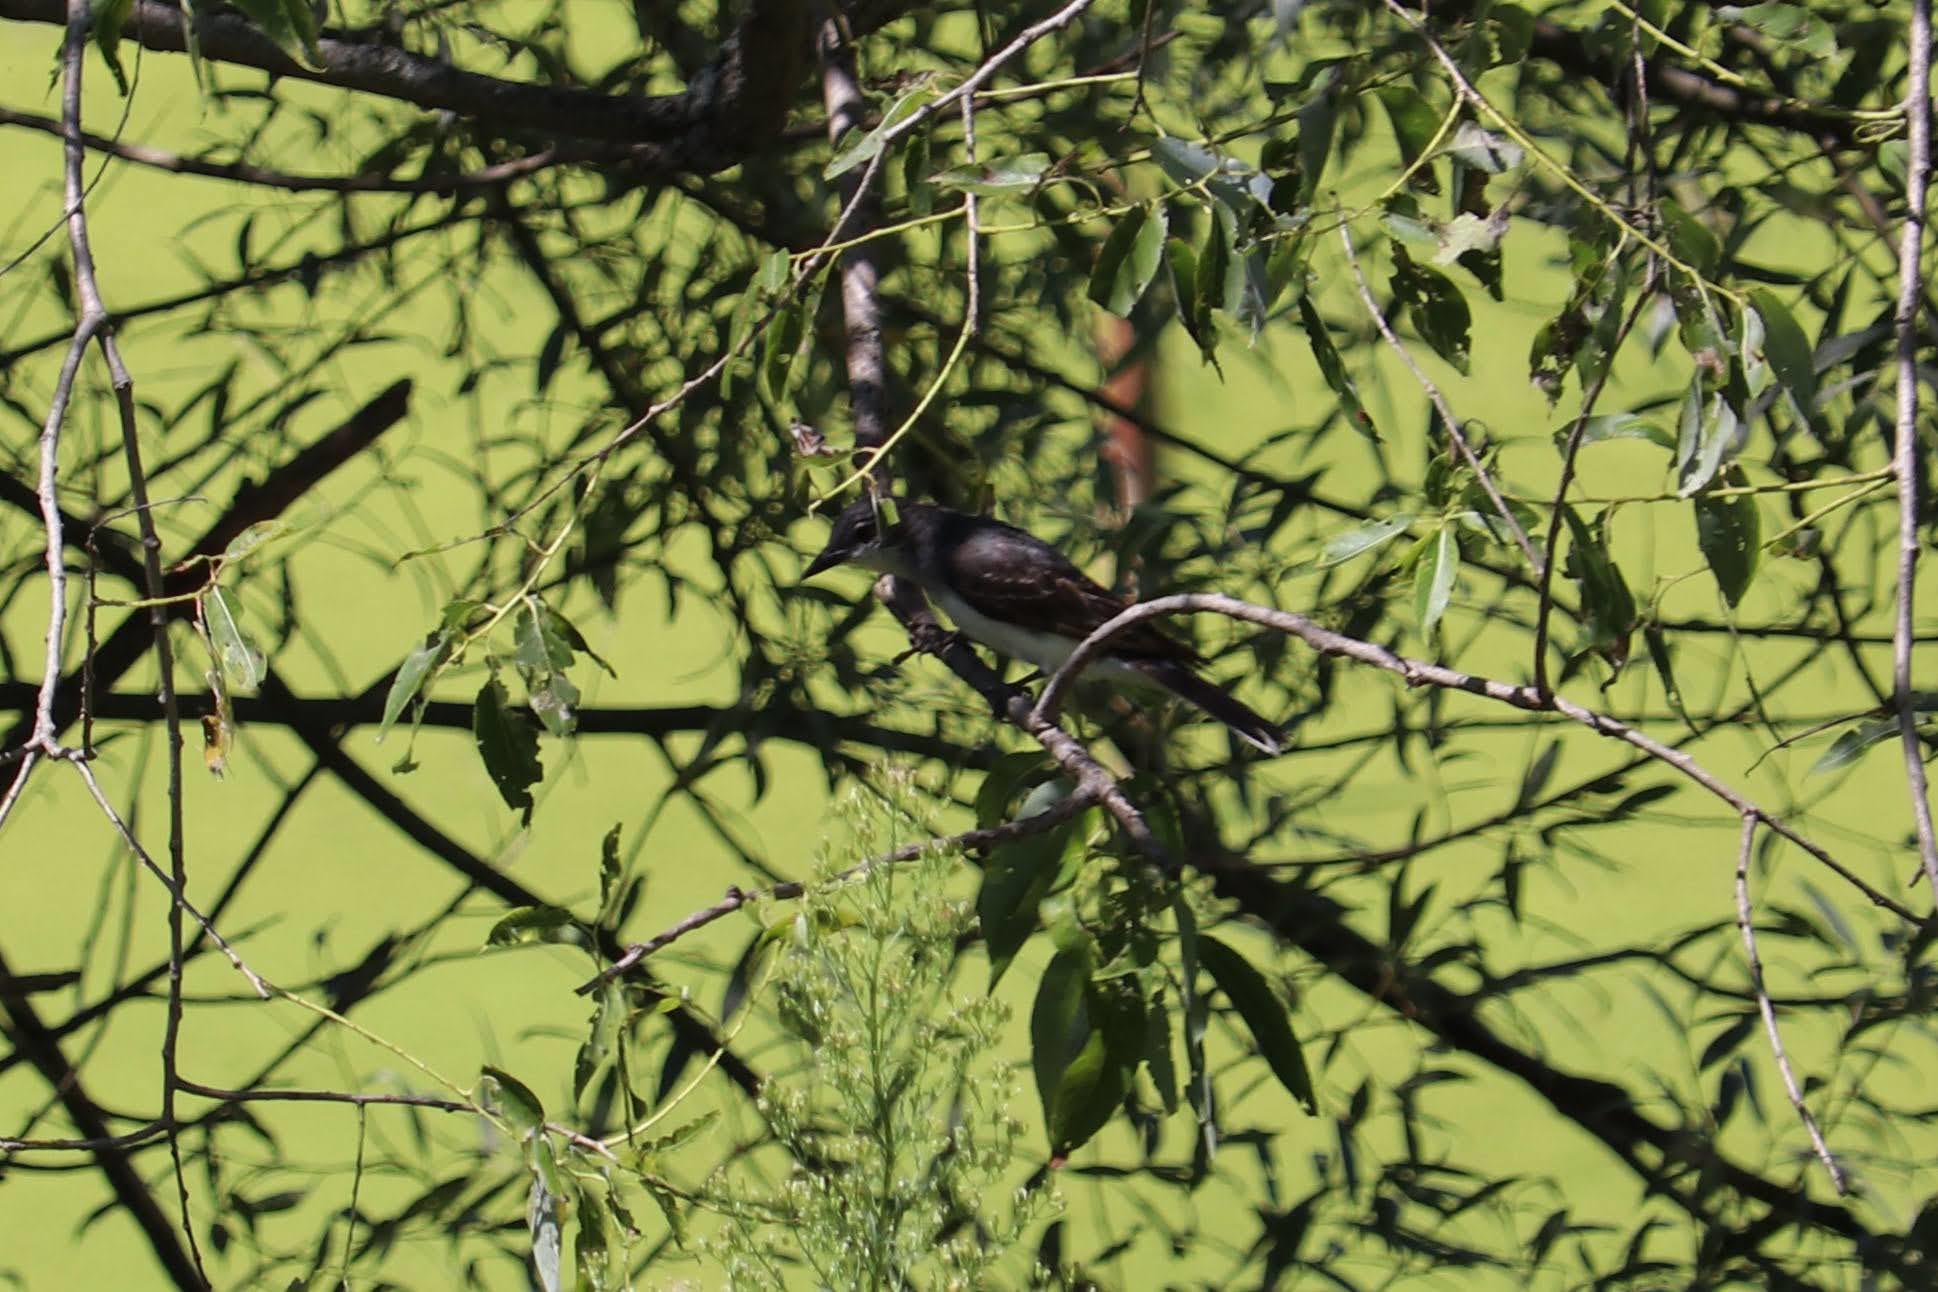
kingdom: Animalia
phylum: Chordata
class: Aves
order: Passeriformes
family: Tyrannidae
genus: Tyrannus
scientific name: Tyrannus tyrannus
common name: Eastern kingbird
